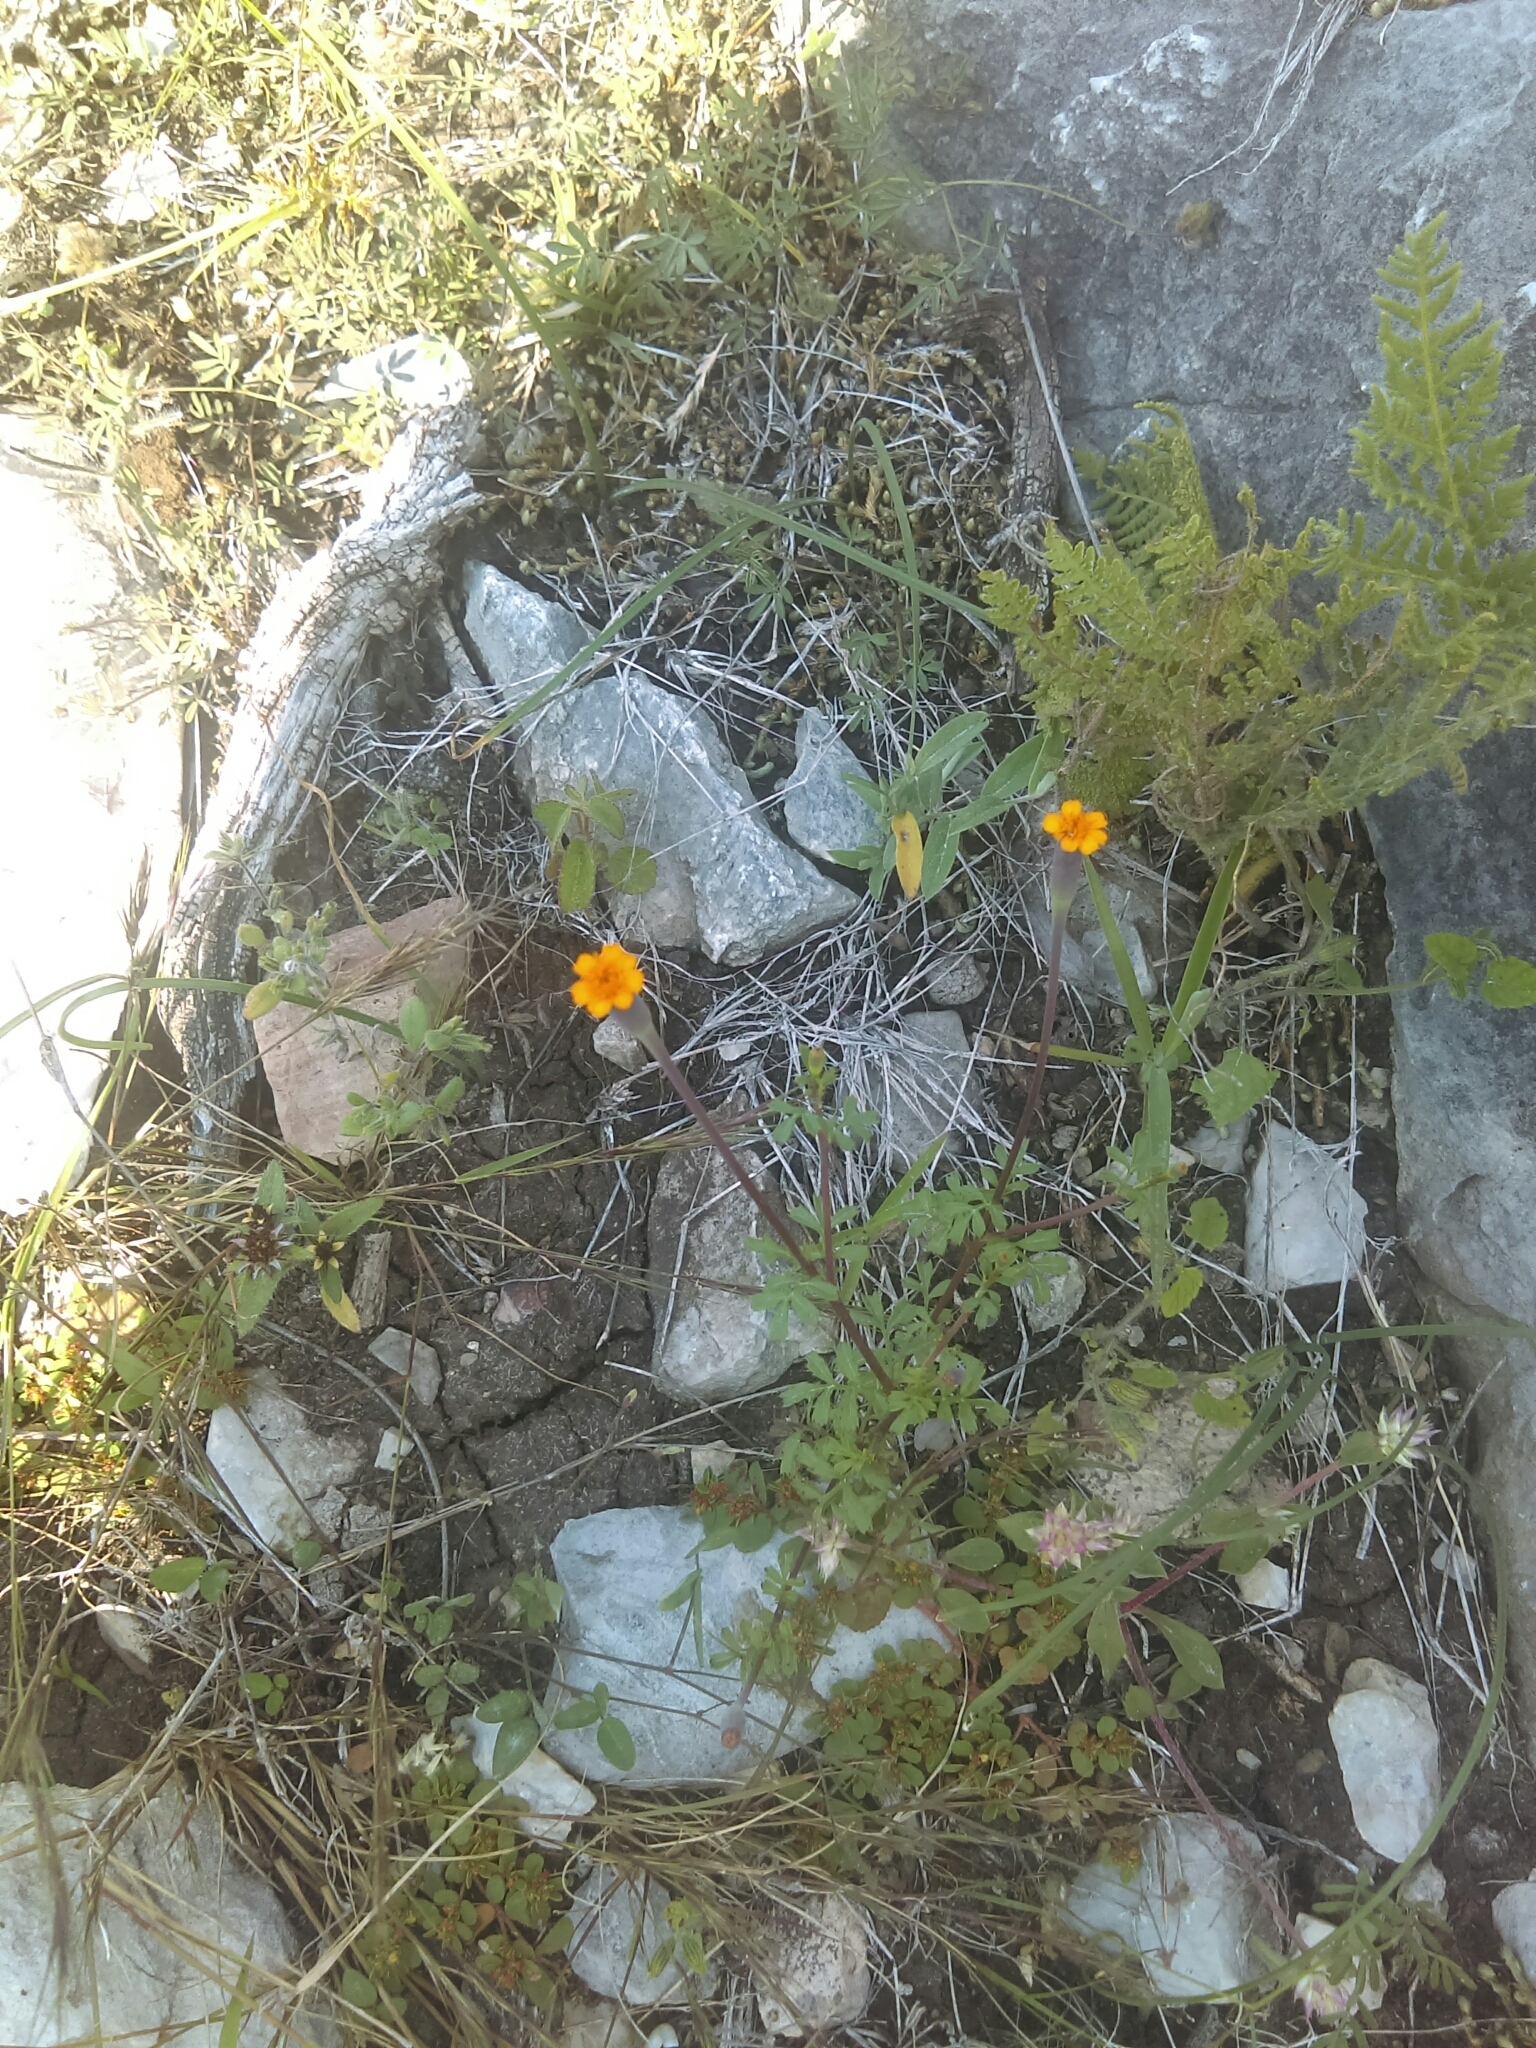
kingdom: Plantae
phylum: Tracheophyta
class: Magnoliopsida
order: Asterales
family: Asteraceae
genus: Tagetes
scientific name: Tagetes moorei
